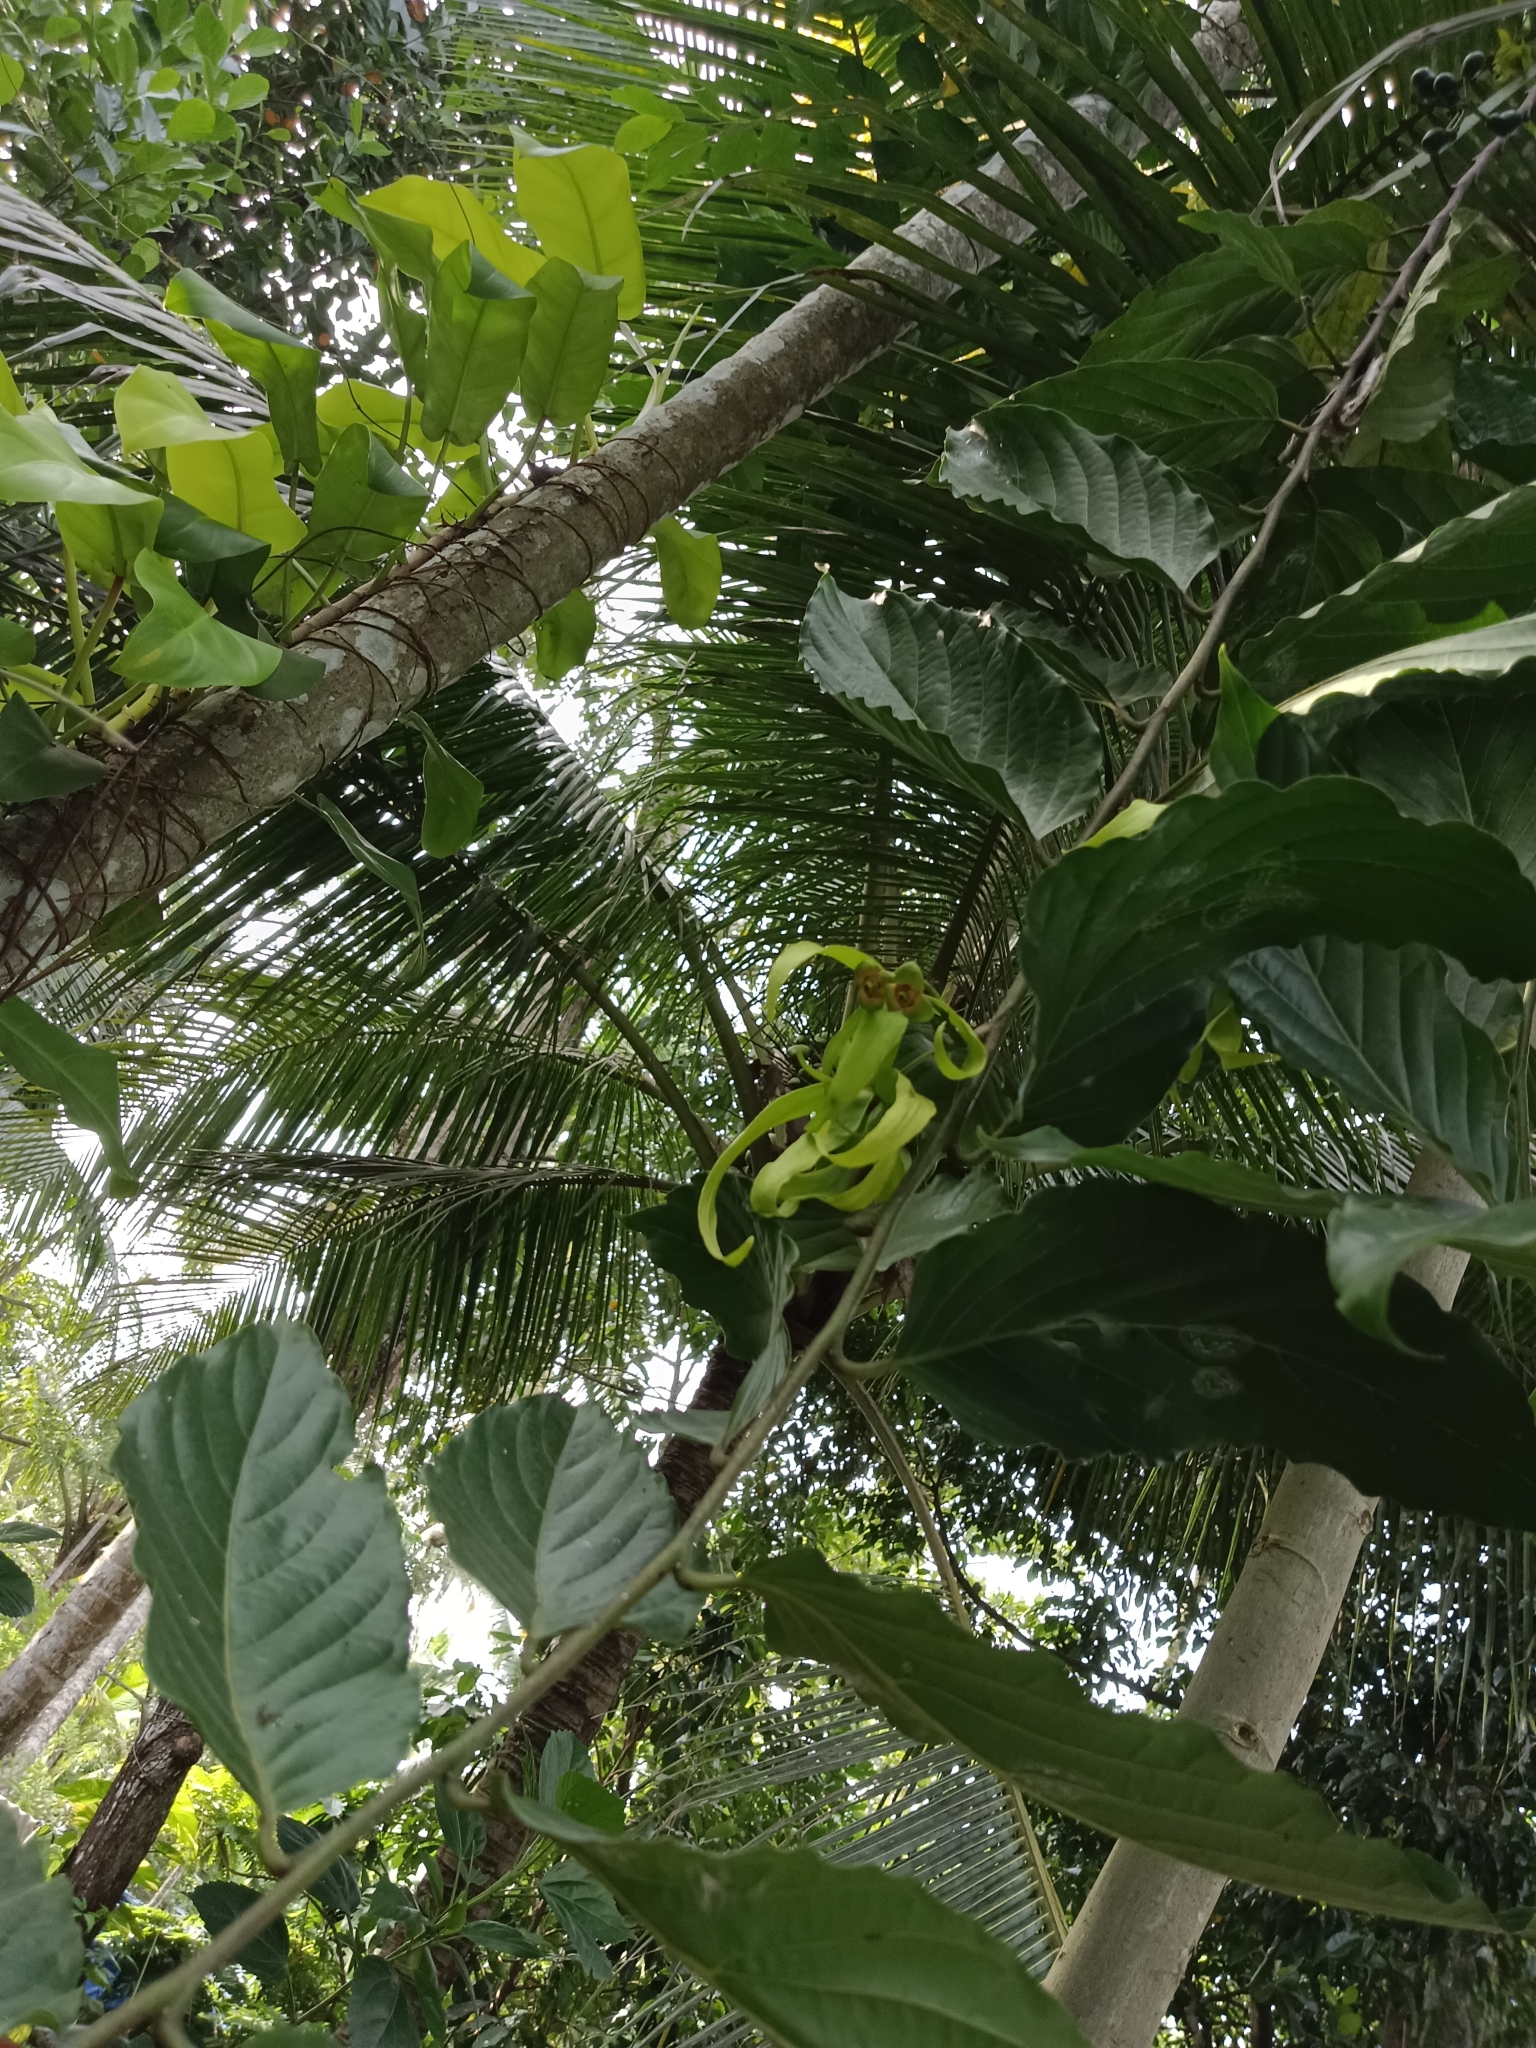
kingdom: Plantae
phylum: Tracheophyta
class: Magnoliopsida
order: Magnoliales
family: Annonaceae
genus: Cananga
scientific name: Cananga odorata
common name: Cananga tree
